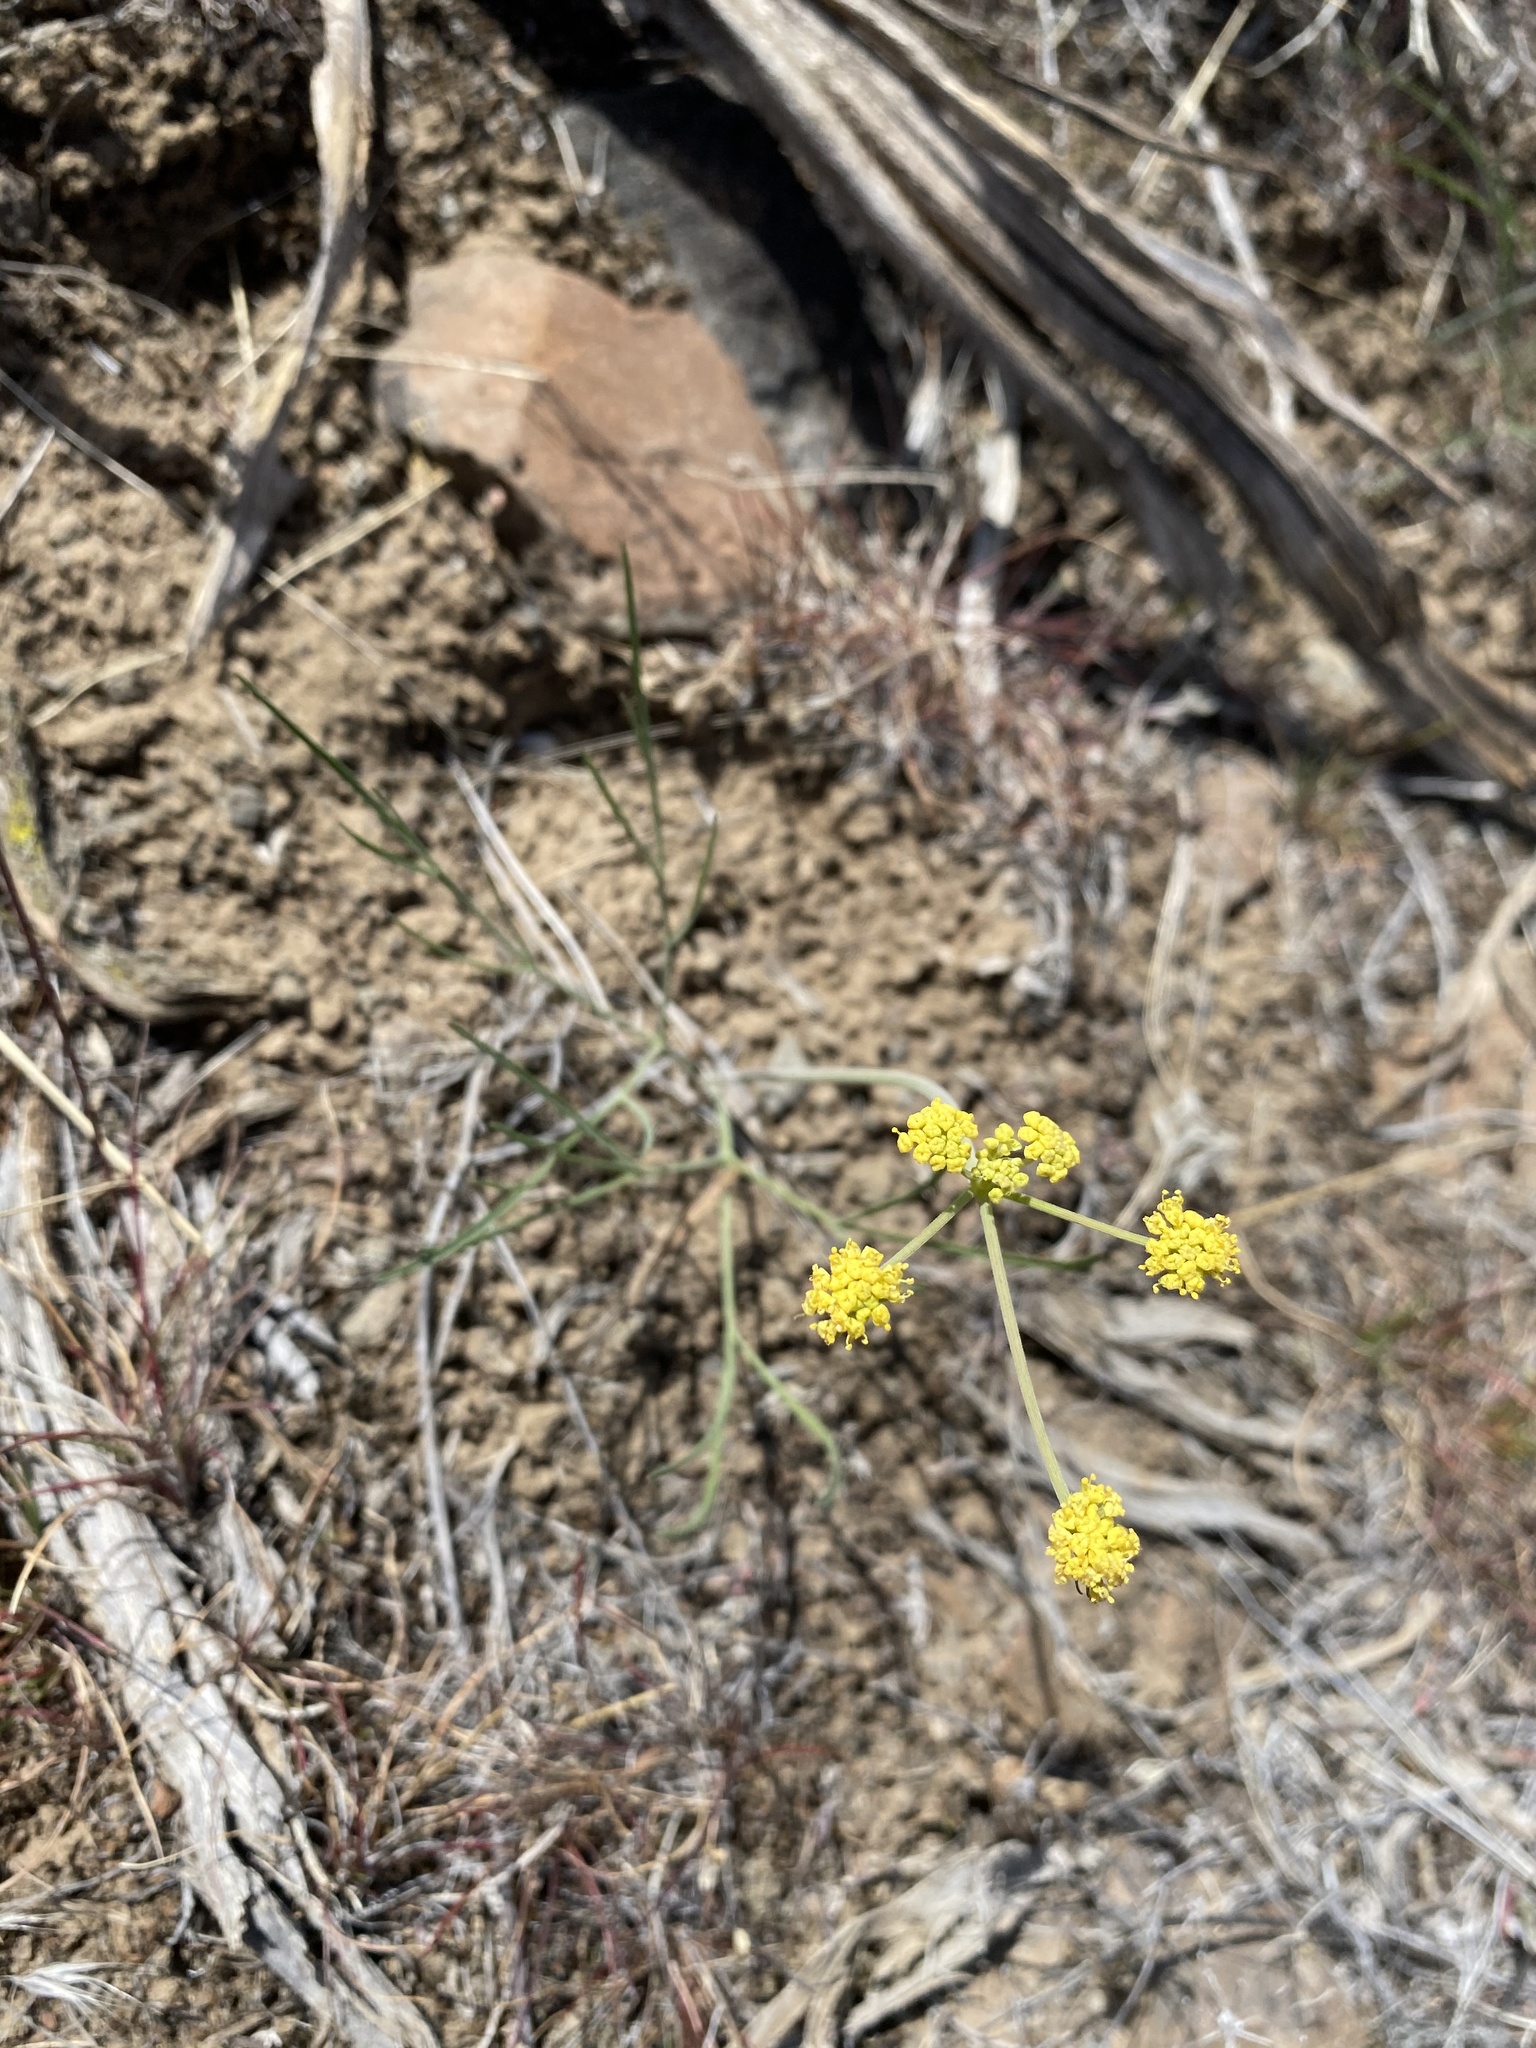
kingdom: Plantae
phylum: Tracheophyta
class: Magnoliopsida
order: Apiales
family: Apiaceae
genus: Lomatium
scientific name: Lomatium triternatum
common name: Ternate lomatium
